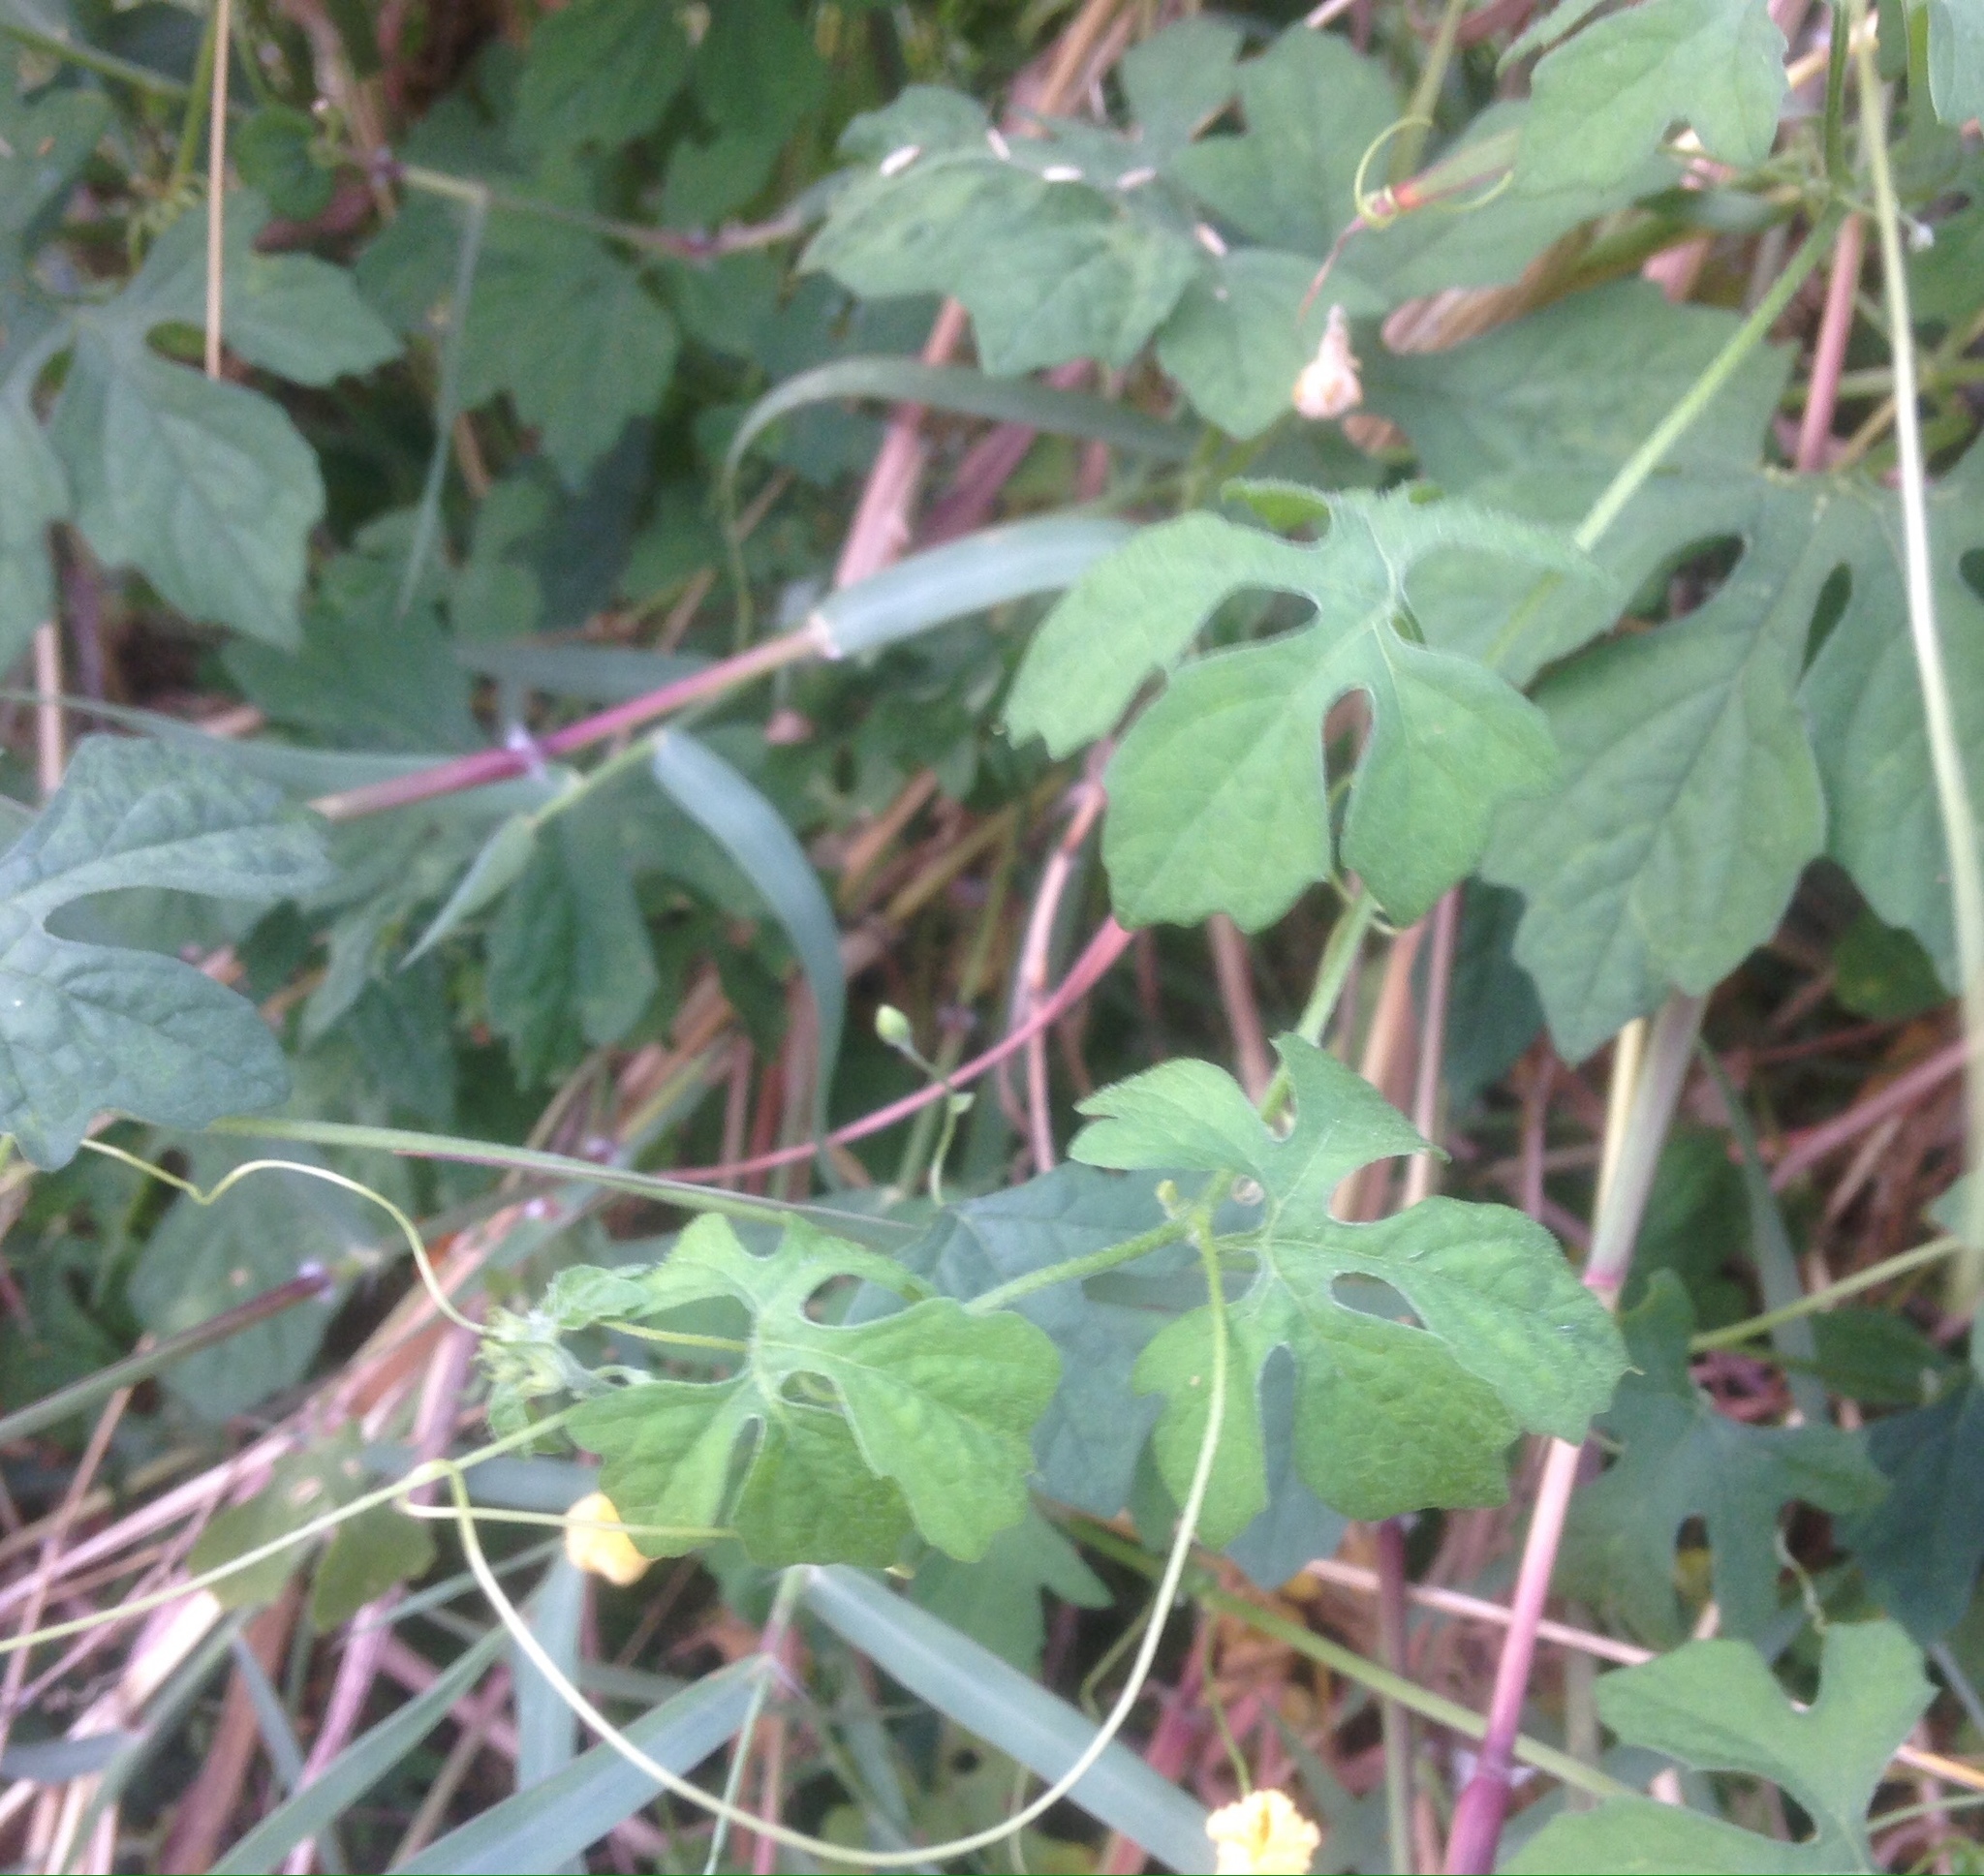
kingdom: Plantae
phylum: Tracheophyta
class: Magnoliopsida
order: Cucurbitales
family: Cucurbitaceae
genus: Momordica
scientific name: Momordica charantia
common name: Balsampear
